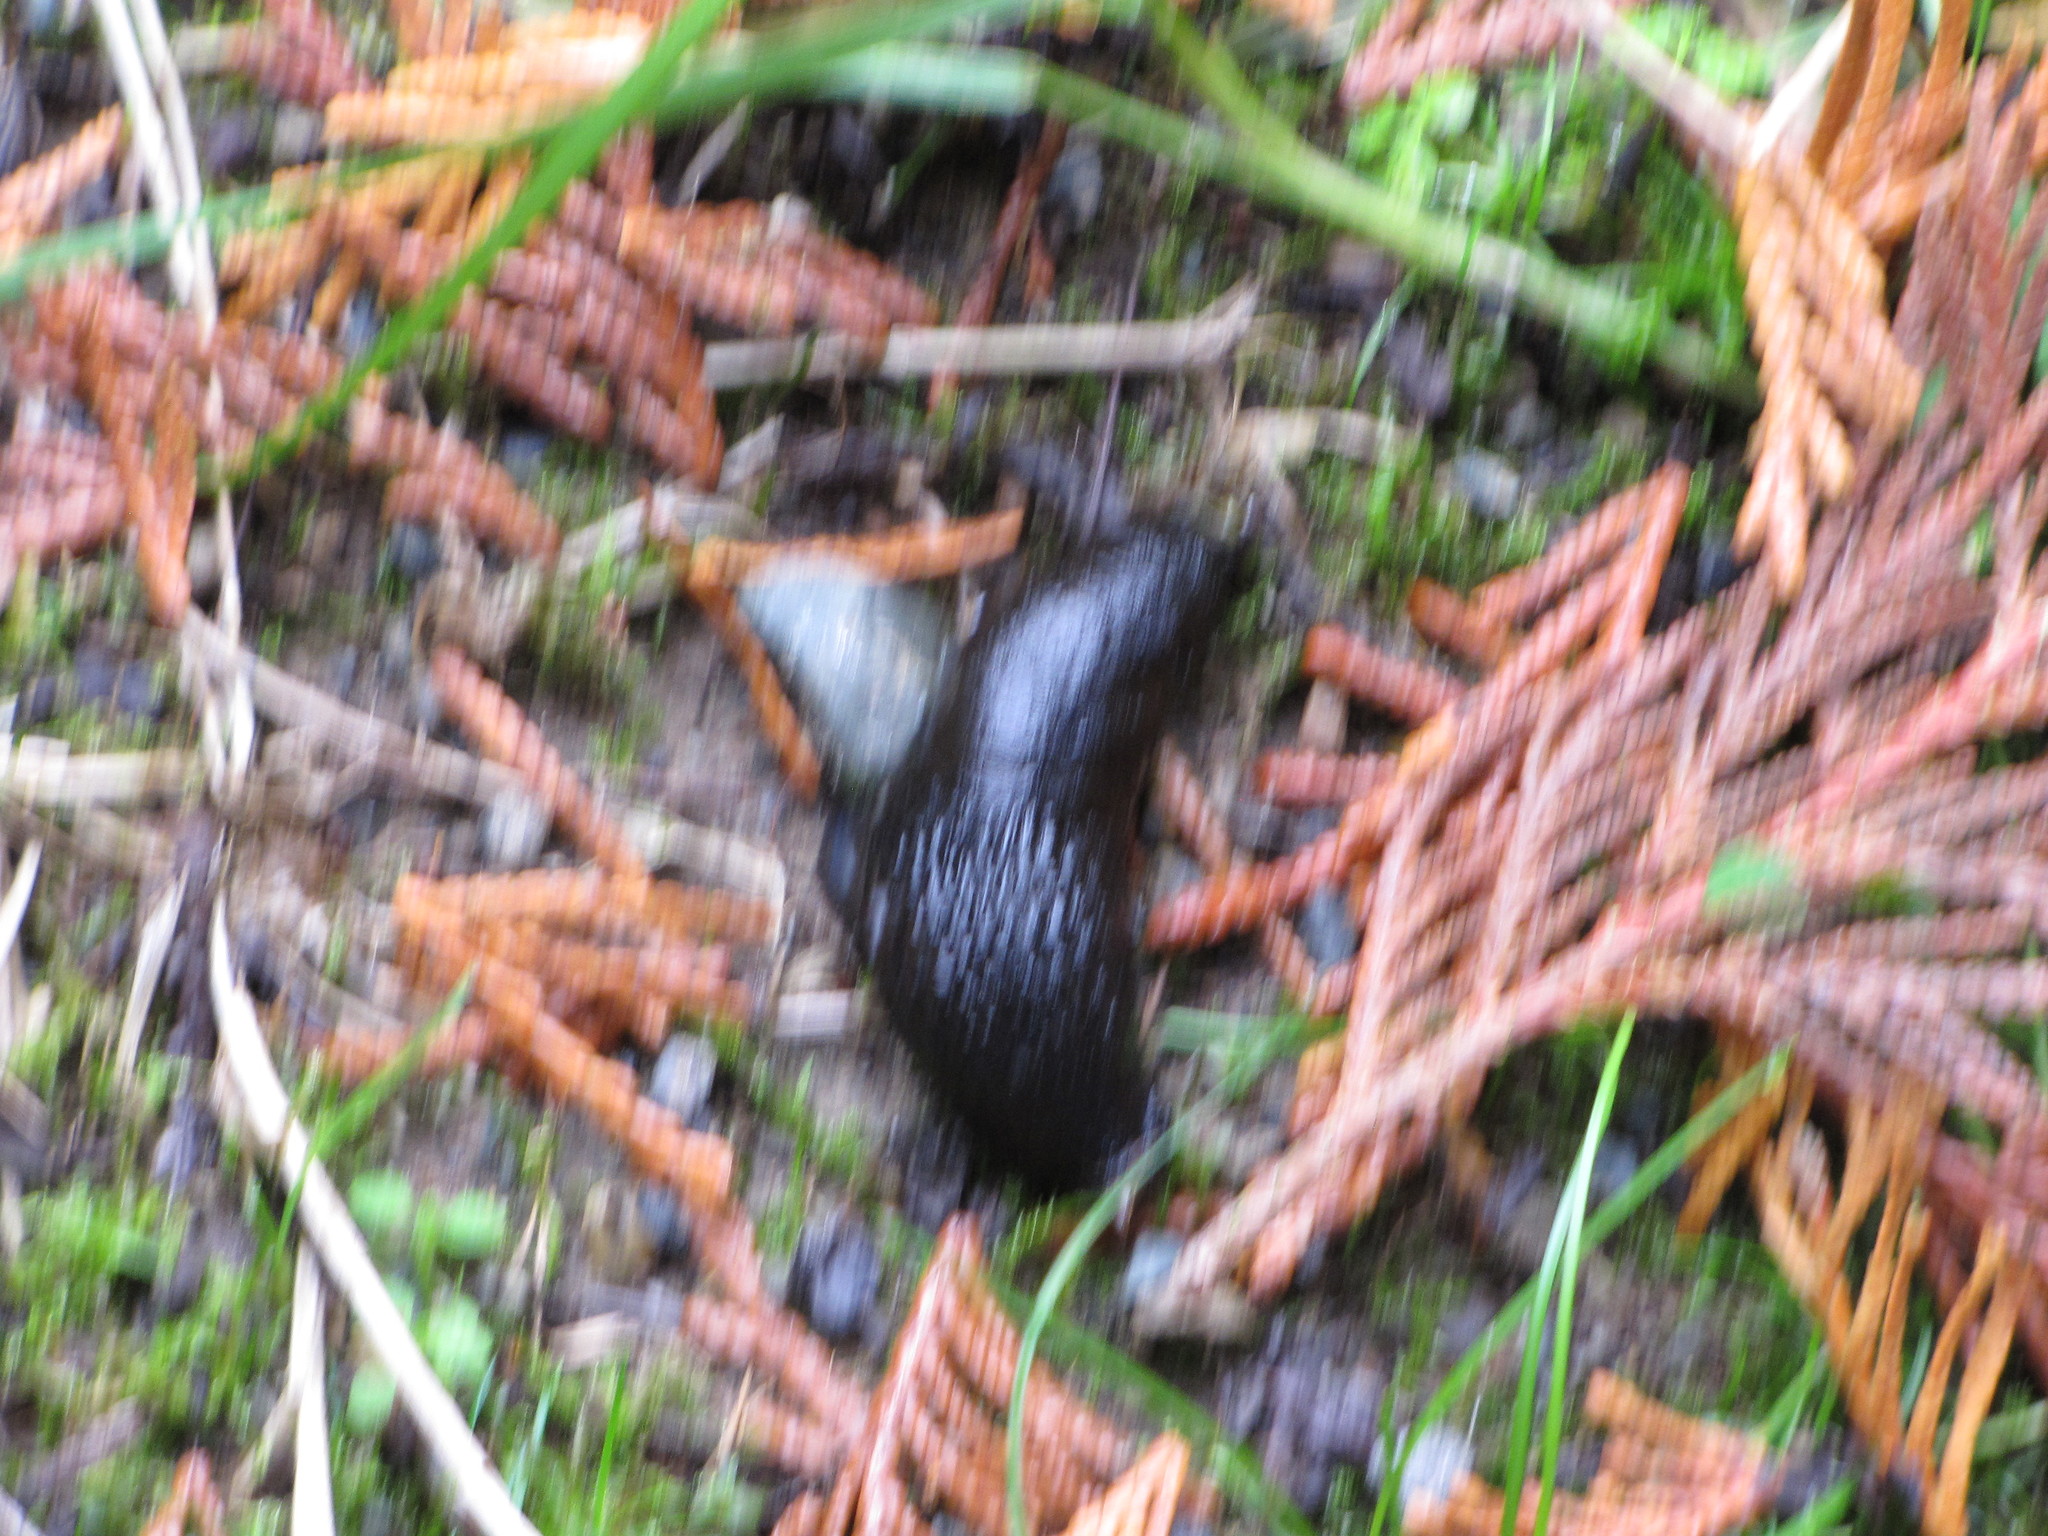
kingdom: Animalia
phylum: Mollusca
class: Gastropoda
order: Stylommatophora
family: Arionidae
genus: Arion
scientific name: Arion rufus
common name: Chocolate arion
